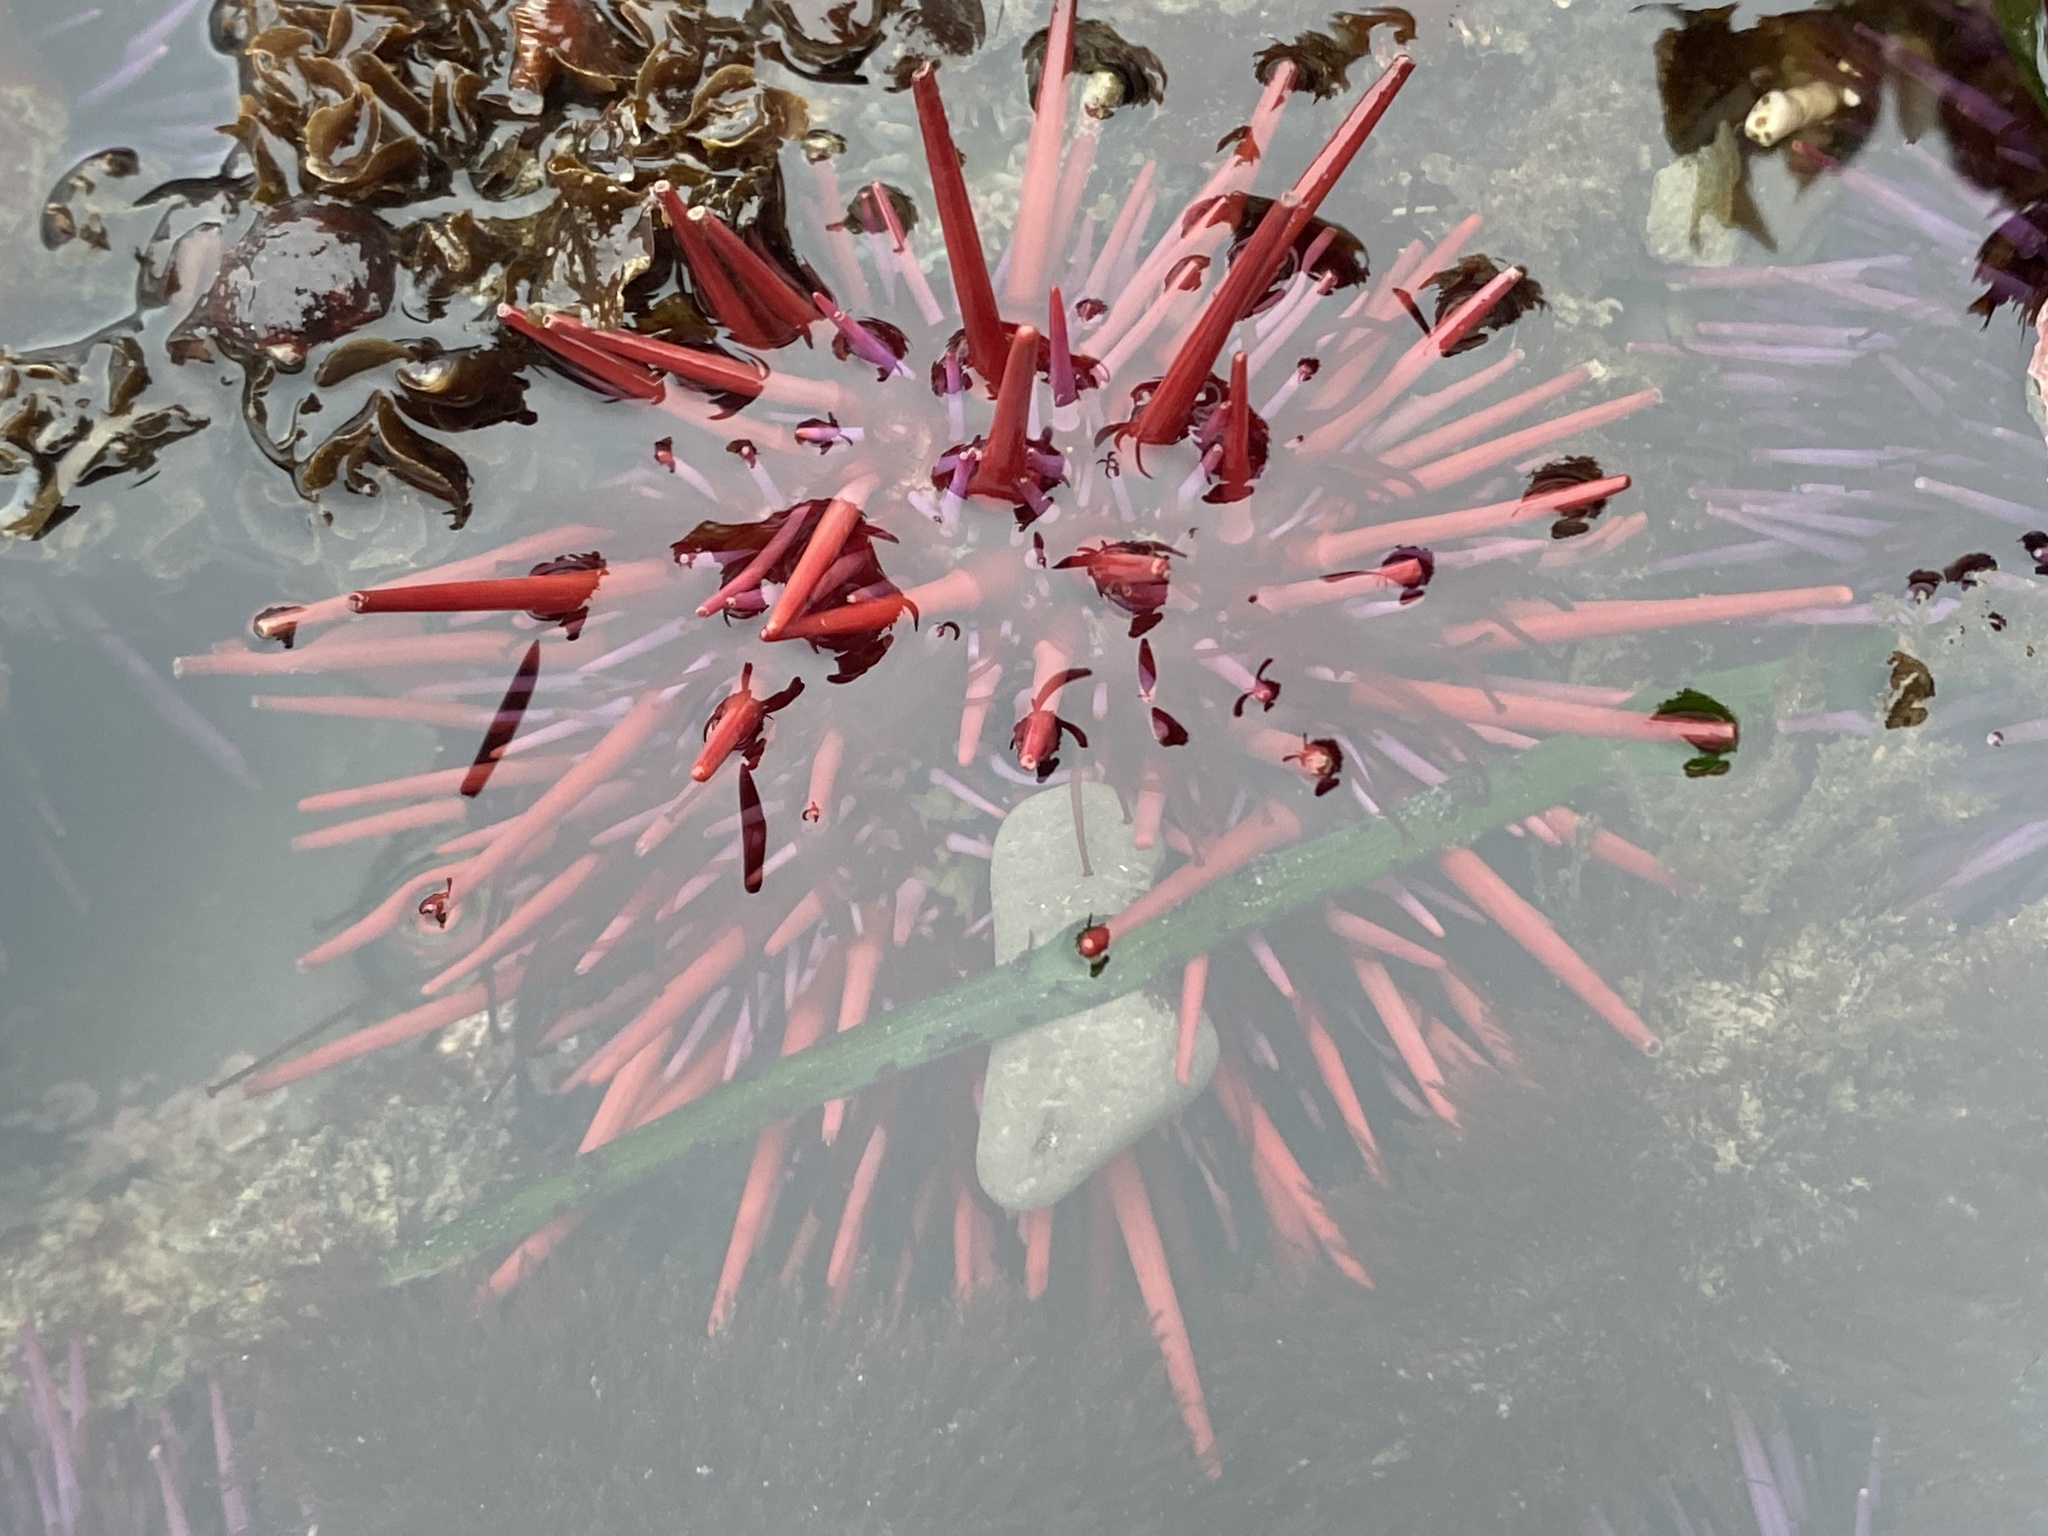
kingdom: Animalia
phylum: Echinodermata
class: Echinoidea
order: Camarodonta
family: Strongylocentrotidae
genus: Mesocentrotus
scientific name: Mesocentrotus franciscanus
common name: Red sea urchin
